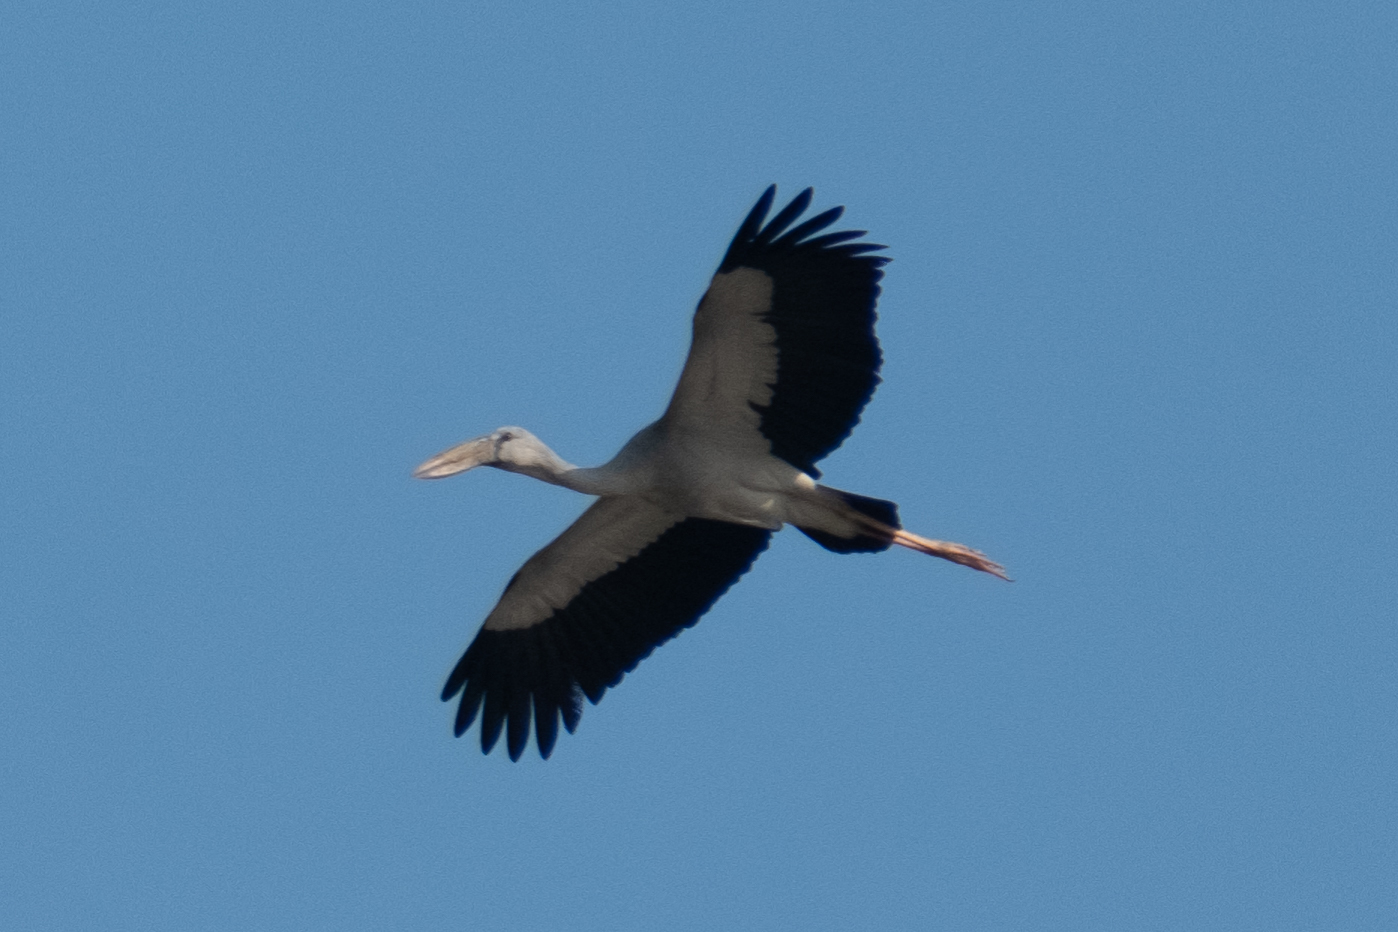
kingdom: Animalia
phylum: Chordata
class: Aves
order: Ciconiiformes
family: Ciconiidae
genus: Anastomus
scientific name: Anastomus oscitans
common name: Asian openbill
